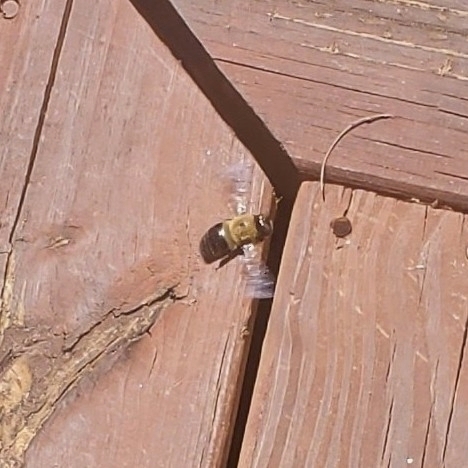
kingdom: Animalia
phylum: Arthropoda
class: Insecta
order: Hymenoptera
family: Apidae
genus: Xylocopa
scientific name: Xylocopa virginica
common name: Carpenter bee
